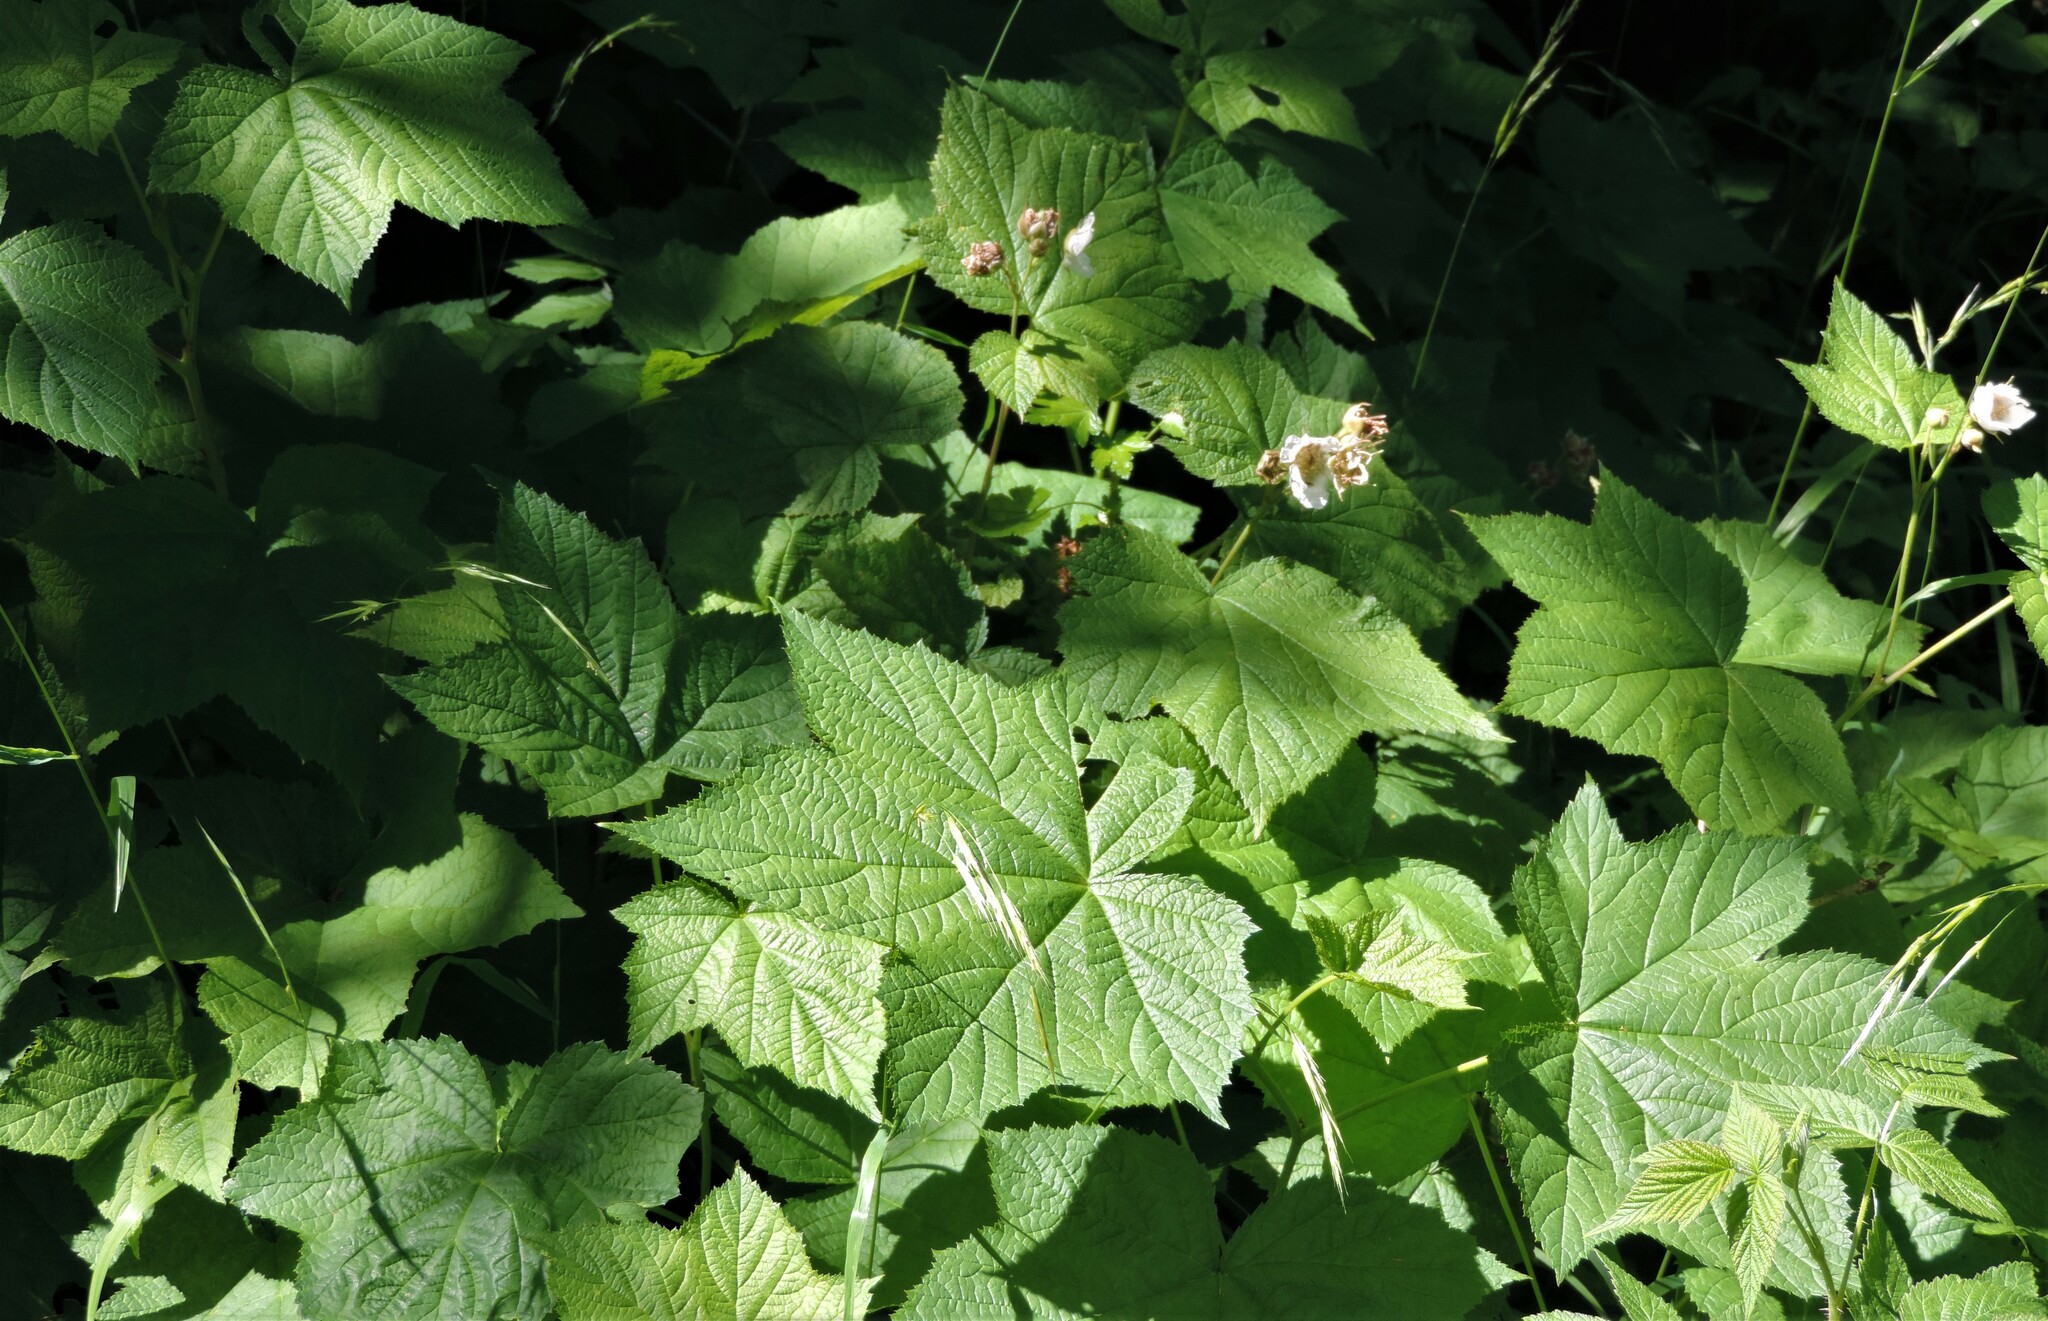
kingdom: Plantae
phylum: Tracheophyta
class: Magnoliopsida
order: Rosales
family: Rosaceae
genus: Rubus
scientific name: Rubus parviflorus
